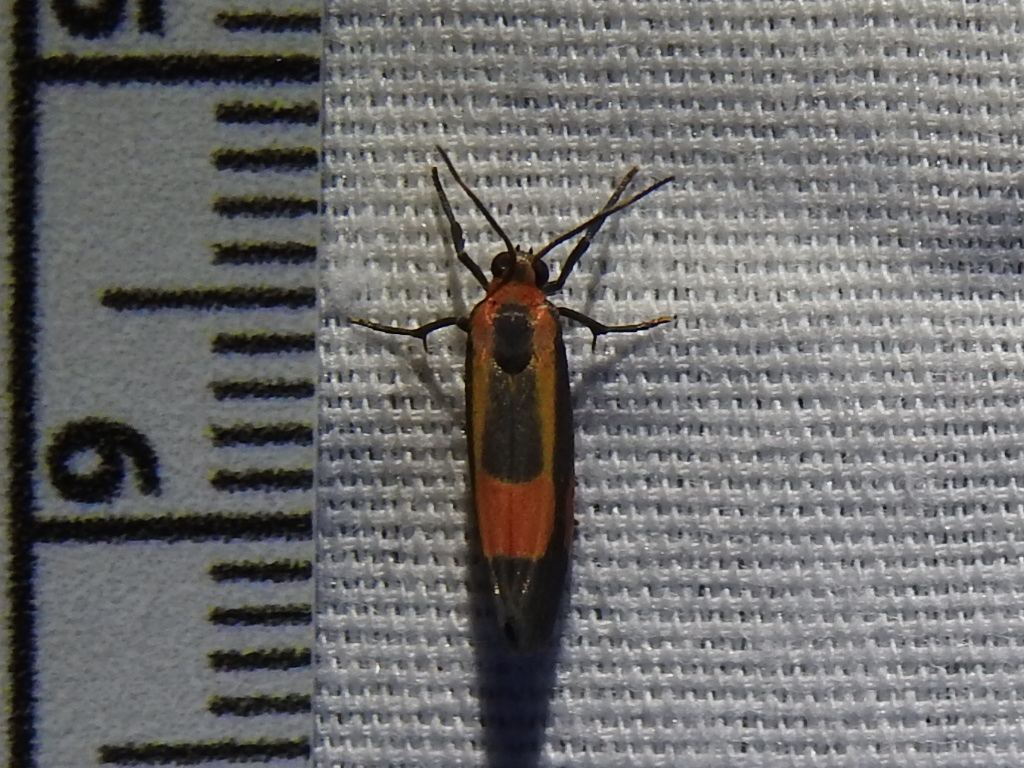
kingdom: Animalia
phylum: Arthropoda
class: Insecta
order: Lepidoptera
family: Erebidae
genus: Cisthene
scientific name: Cisthene packardii
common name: Packard's lichen moth
